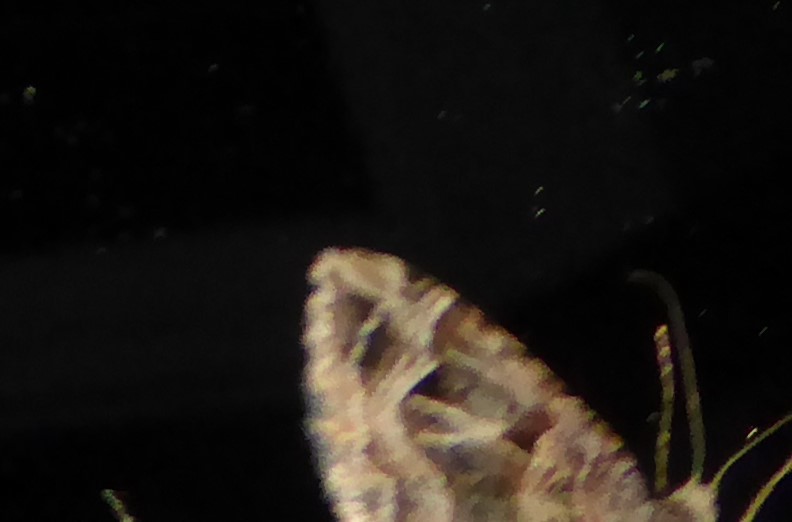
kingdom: Animalia
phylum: Arthropoda
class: Insecta
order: Lepidoptera
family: Geometridae
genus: Xanthorhoe
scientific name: Xanthorhoe semifissata
